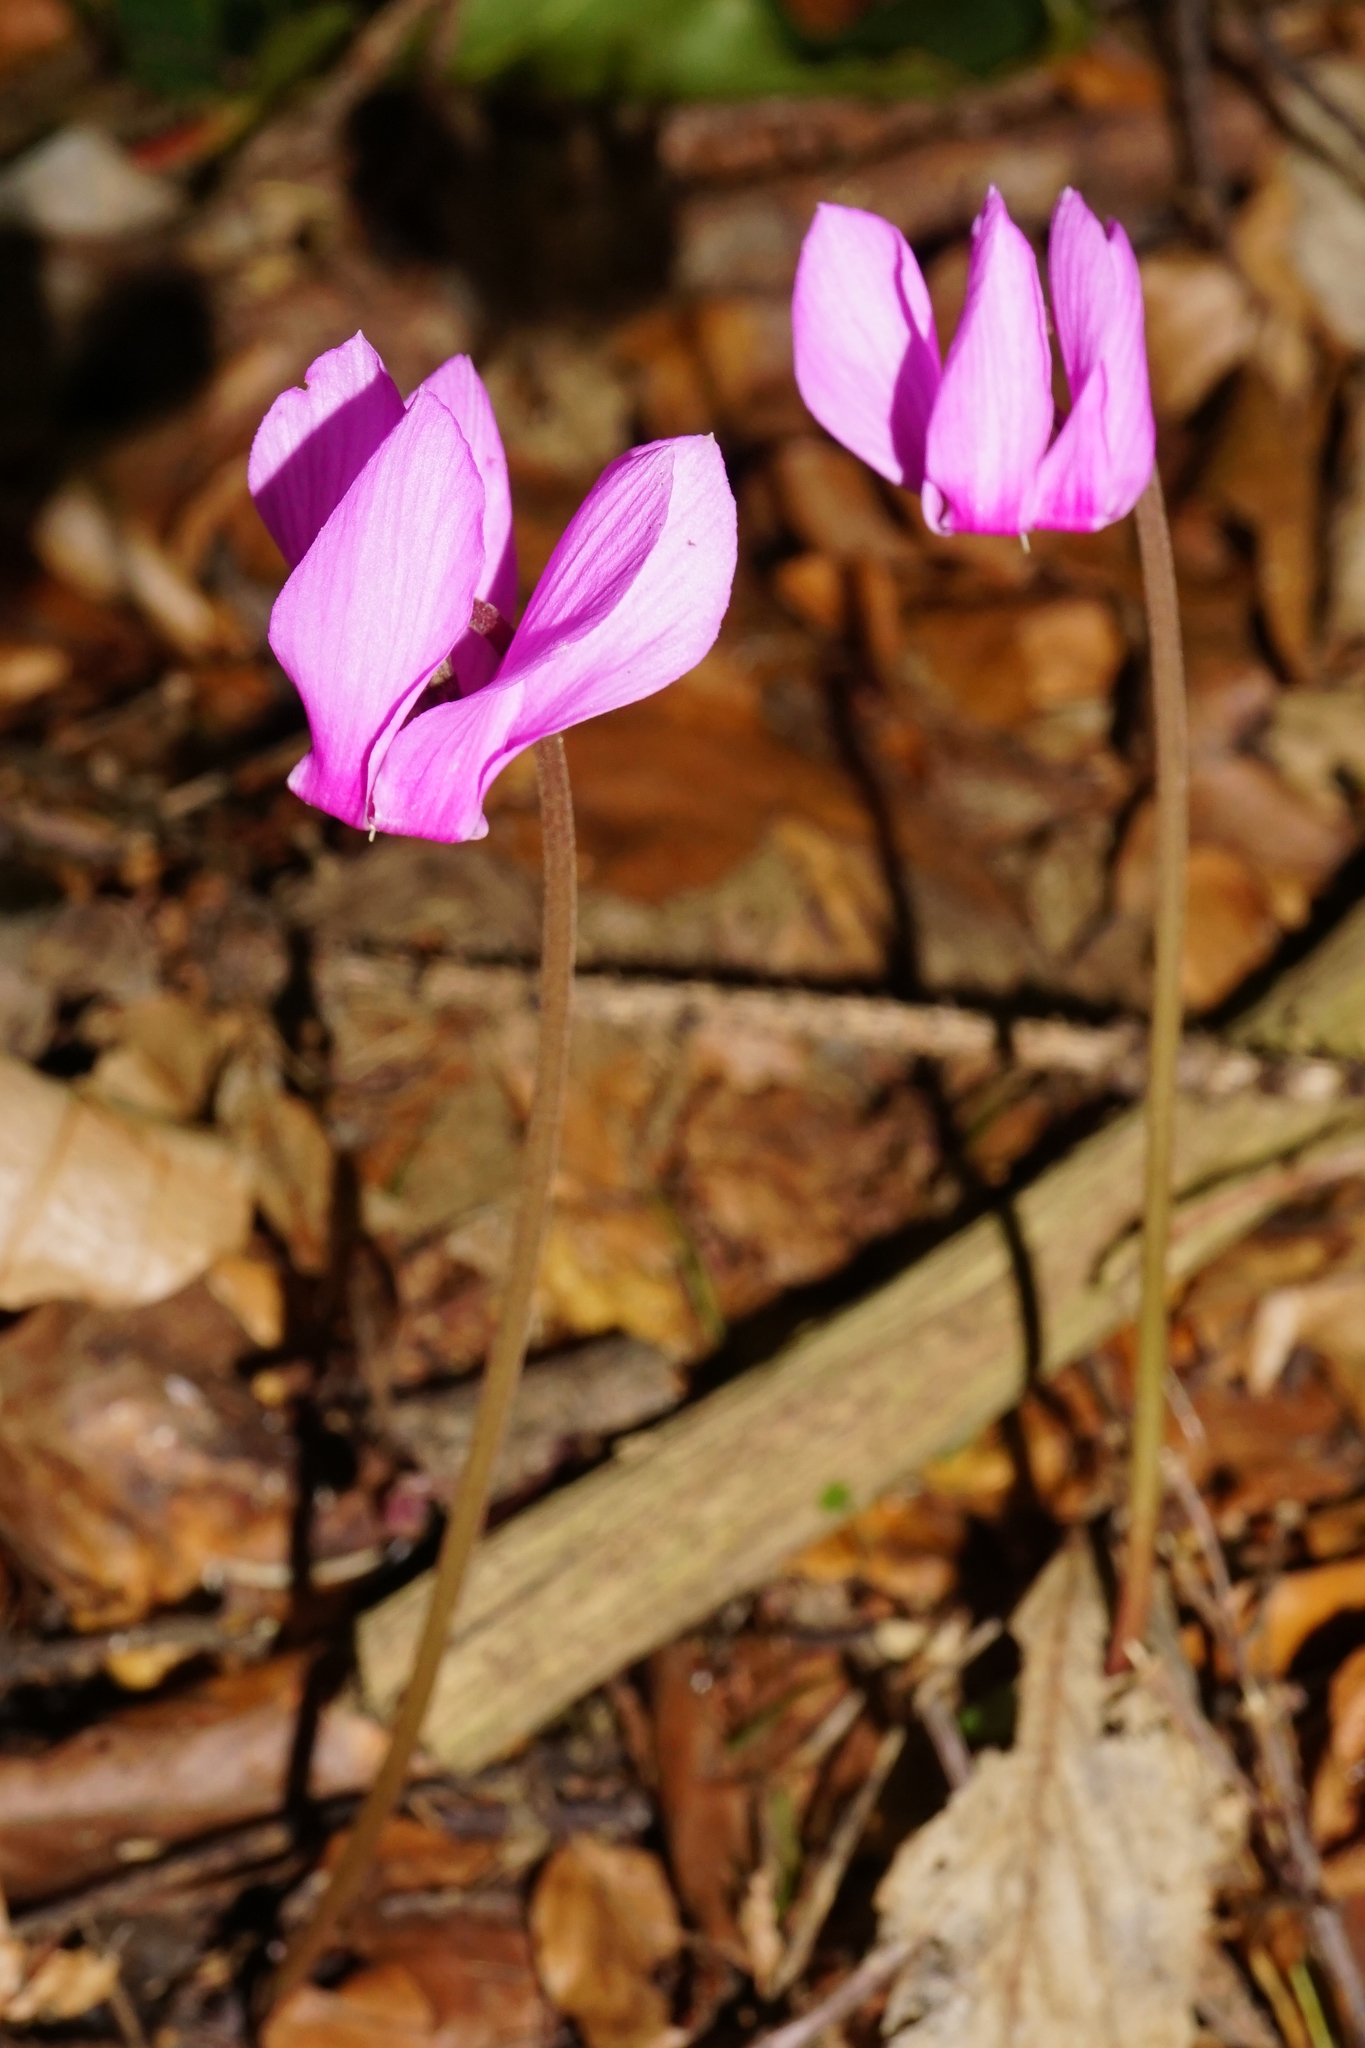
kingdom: Plantae
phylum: Tracheophyta
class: Magnoliopsida
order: Ericales
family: Primulaceae
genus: Cyclamen
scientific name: Cyclamen purpurascens
